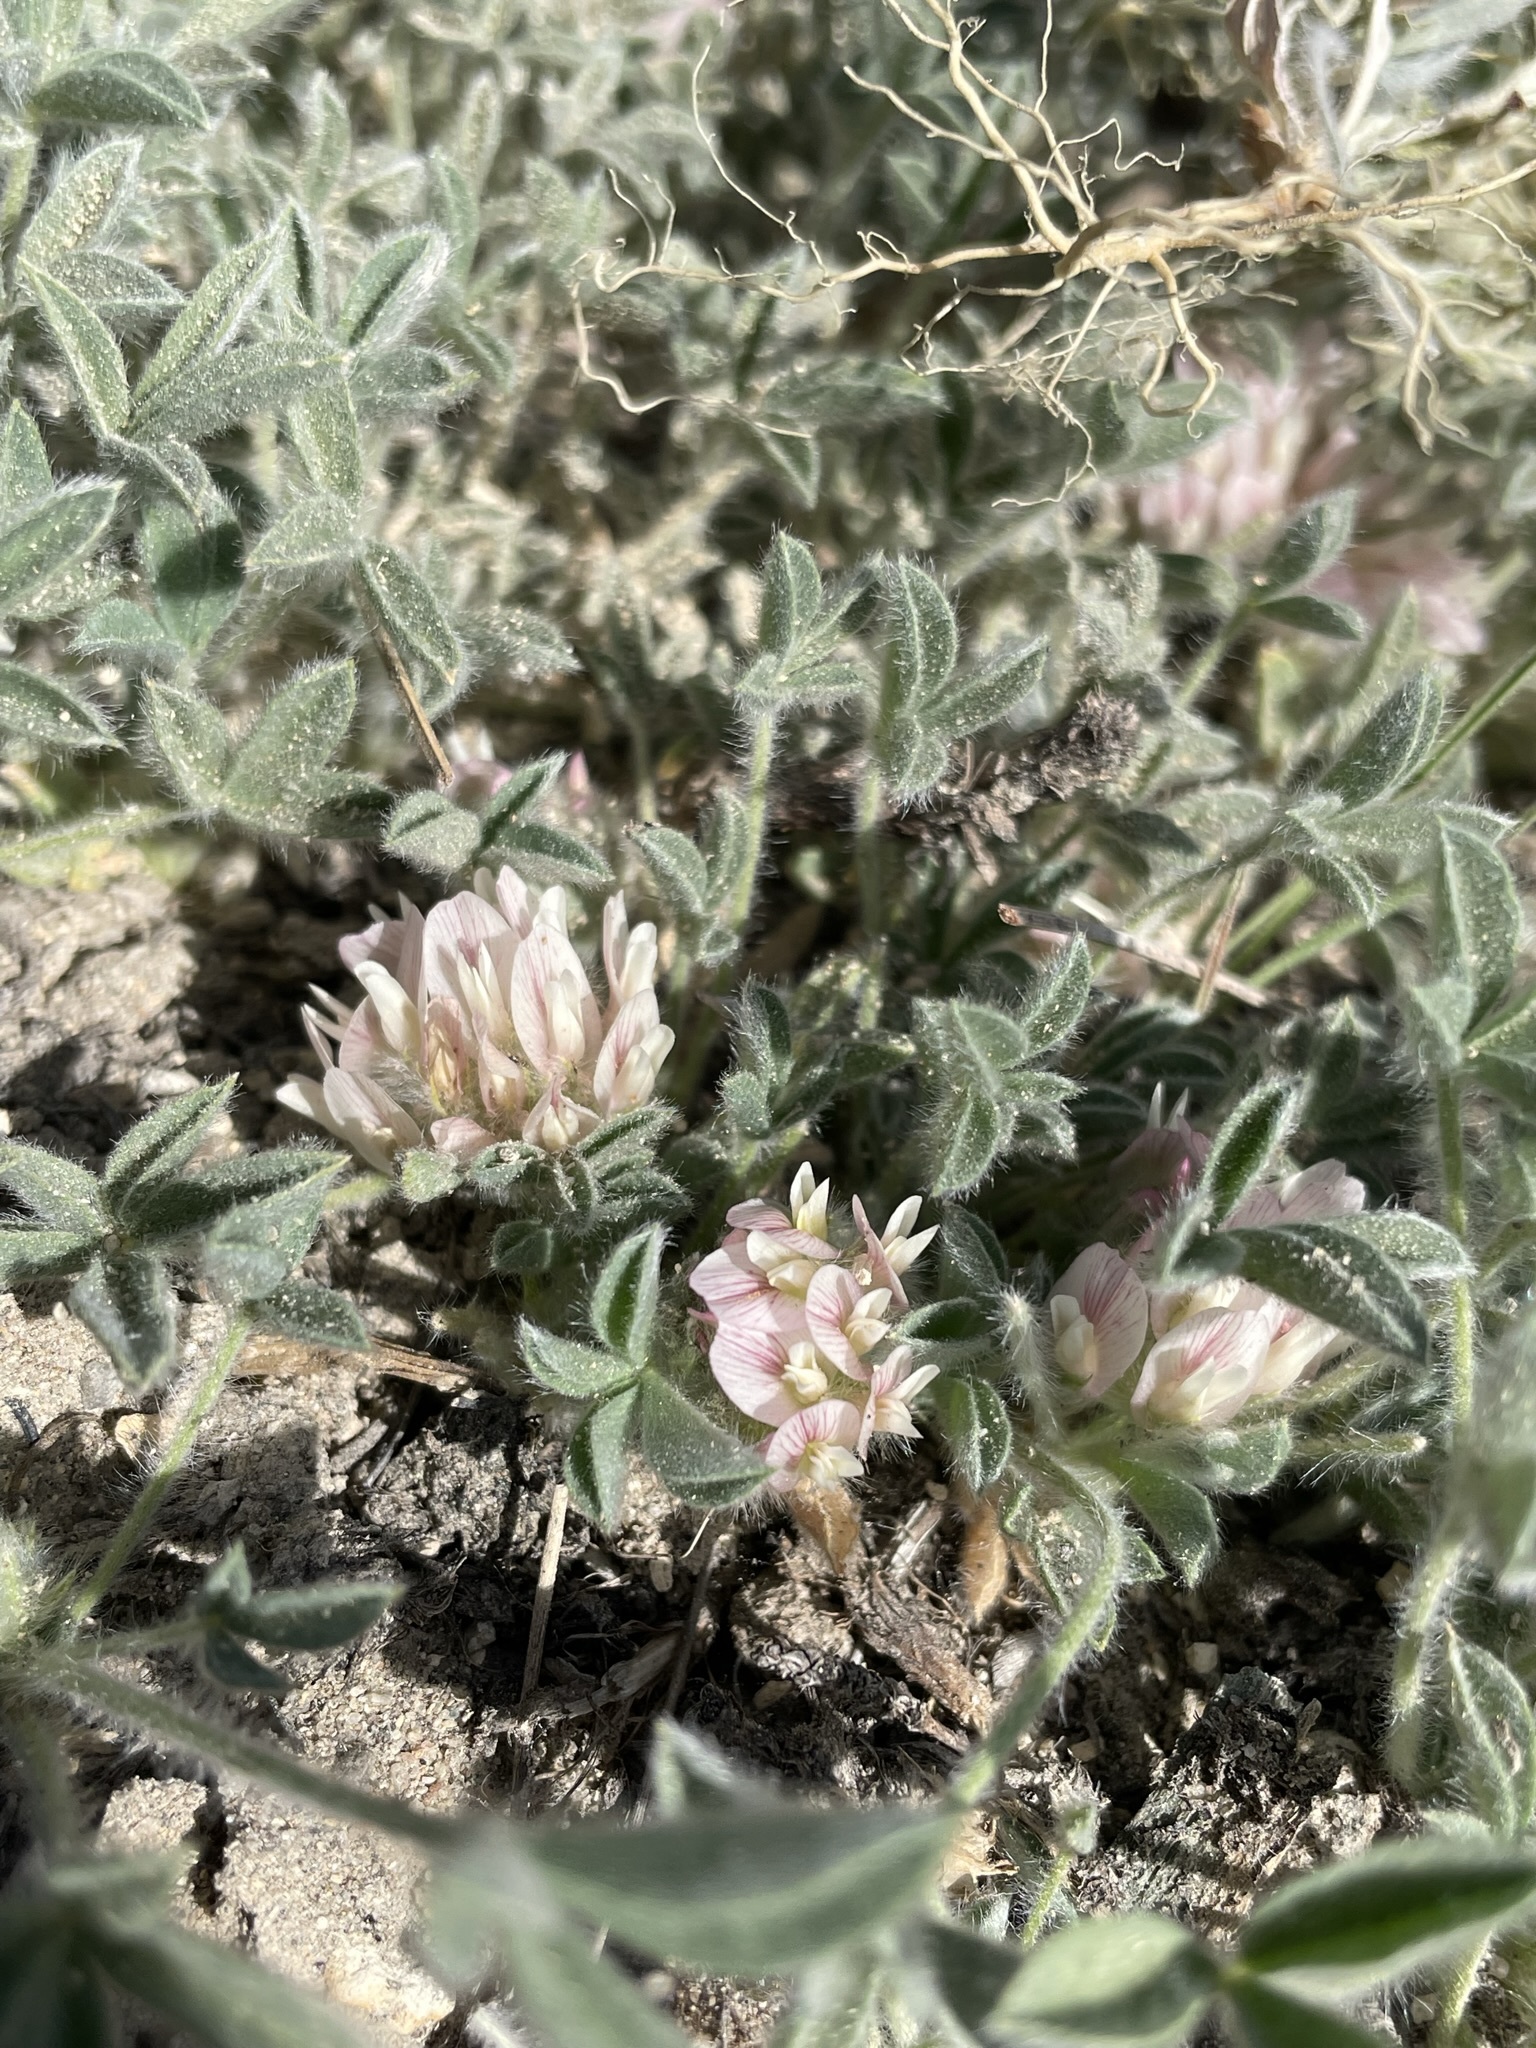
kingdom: Plantae
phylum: Tracheophyta
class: Magnoliopsida
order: Fabales
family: Fabaceae
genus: Trifolium
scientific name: Trifolium andersonii
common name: Anderson's clover
